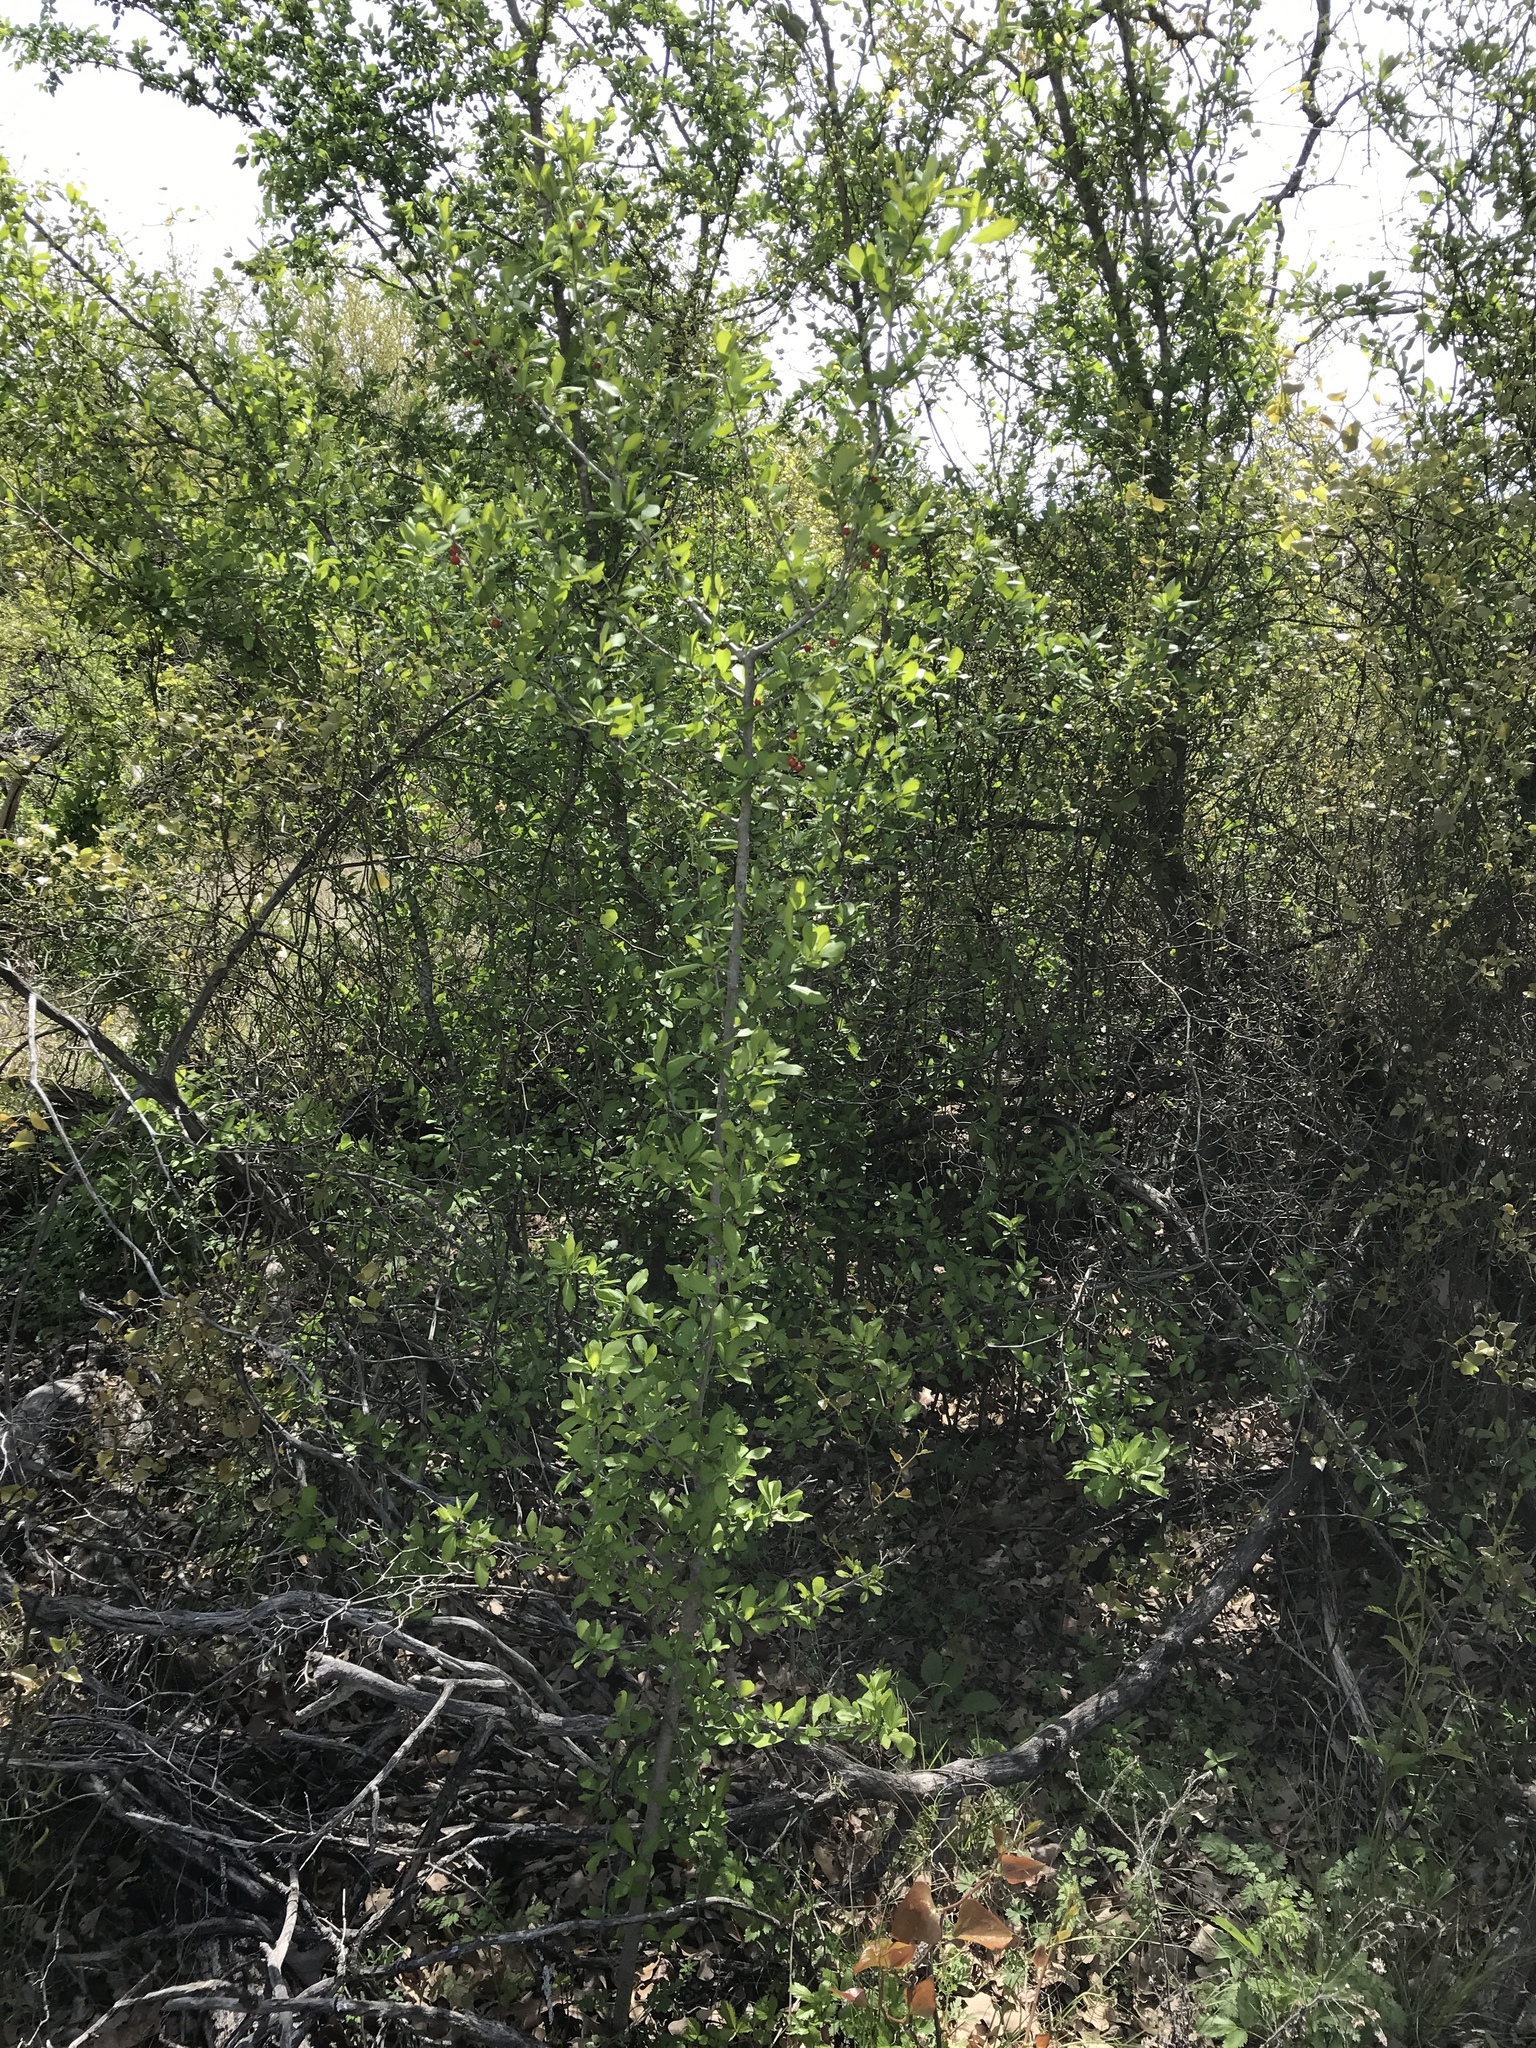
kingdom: Plantae
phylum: Tracheophyta
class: Magnoliopsida
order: Aquifoliales
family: Aquifoliaceae
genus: Ilex
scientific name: Ilex decidua
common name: Possum-haw
